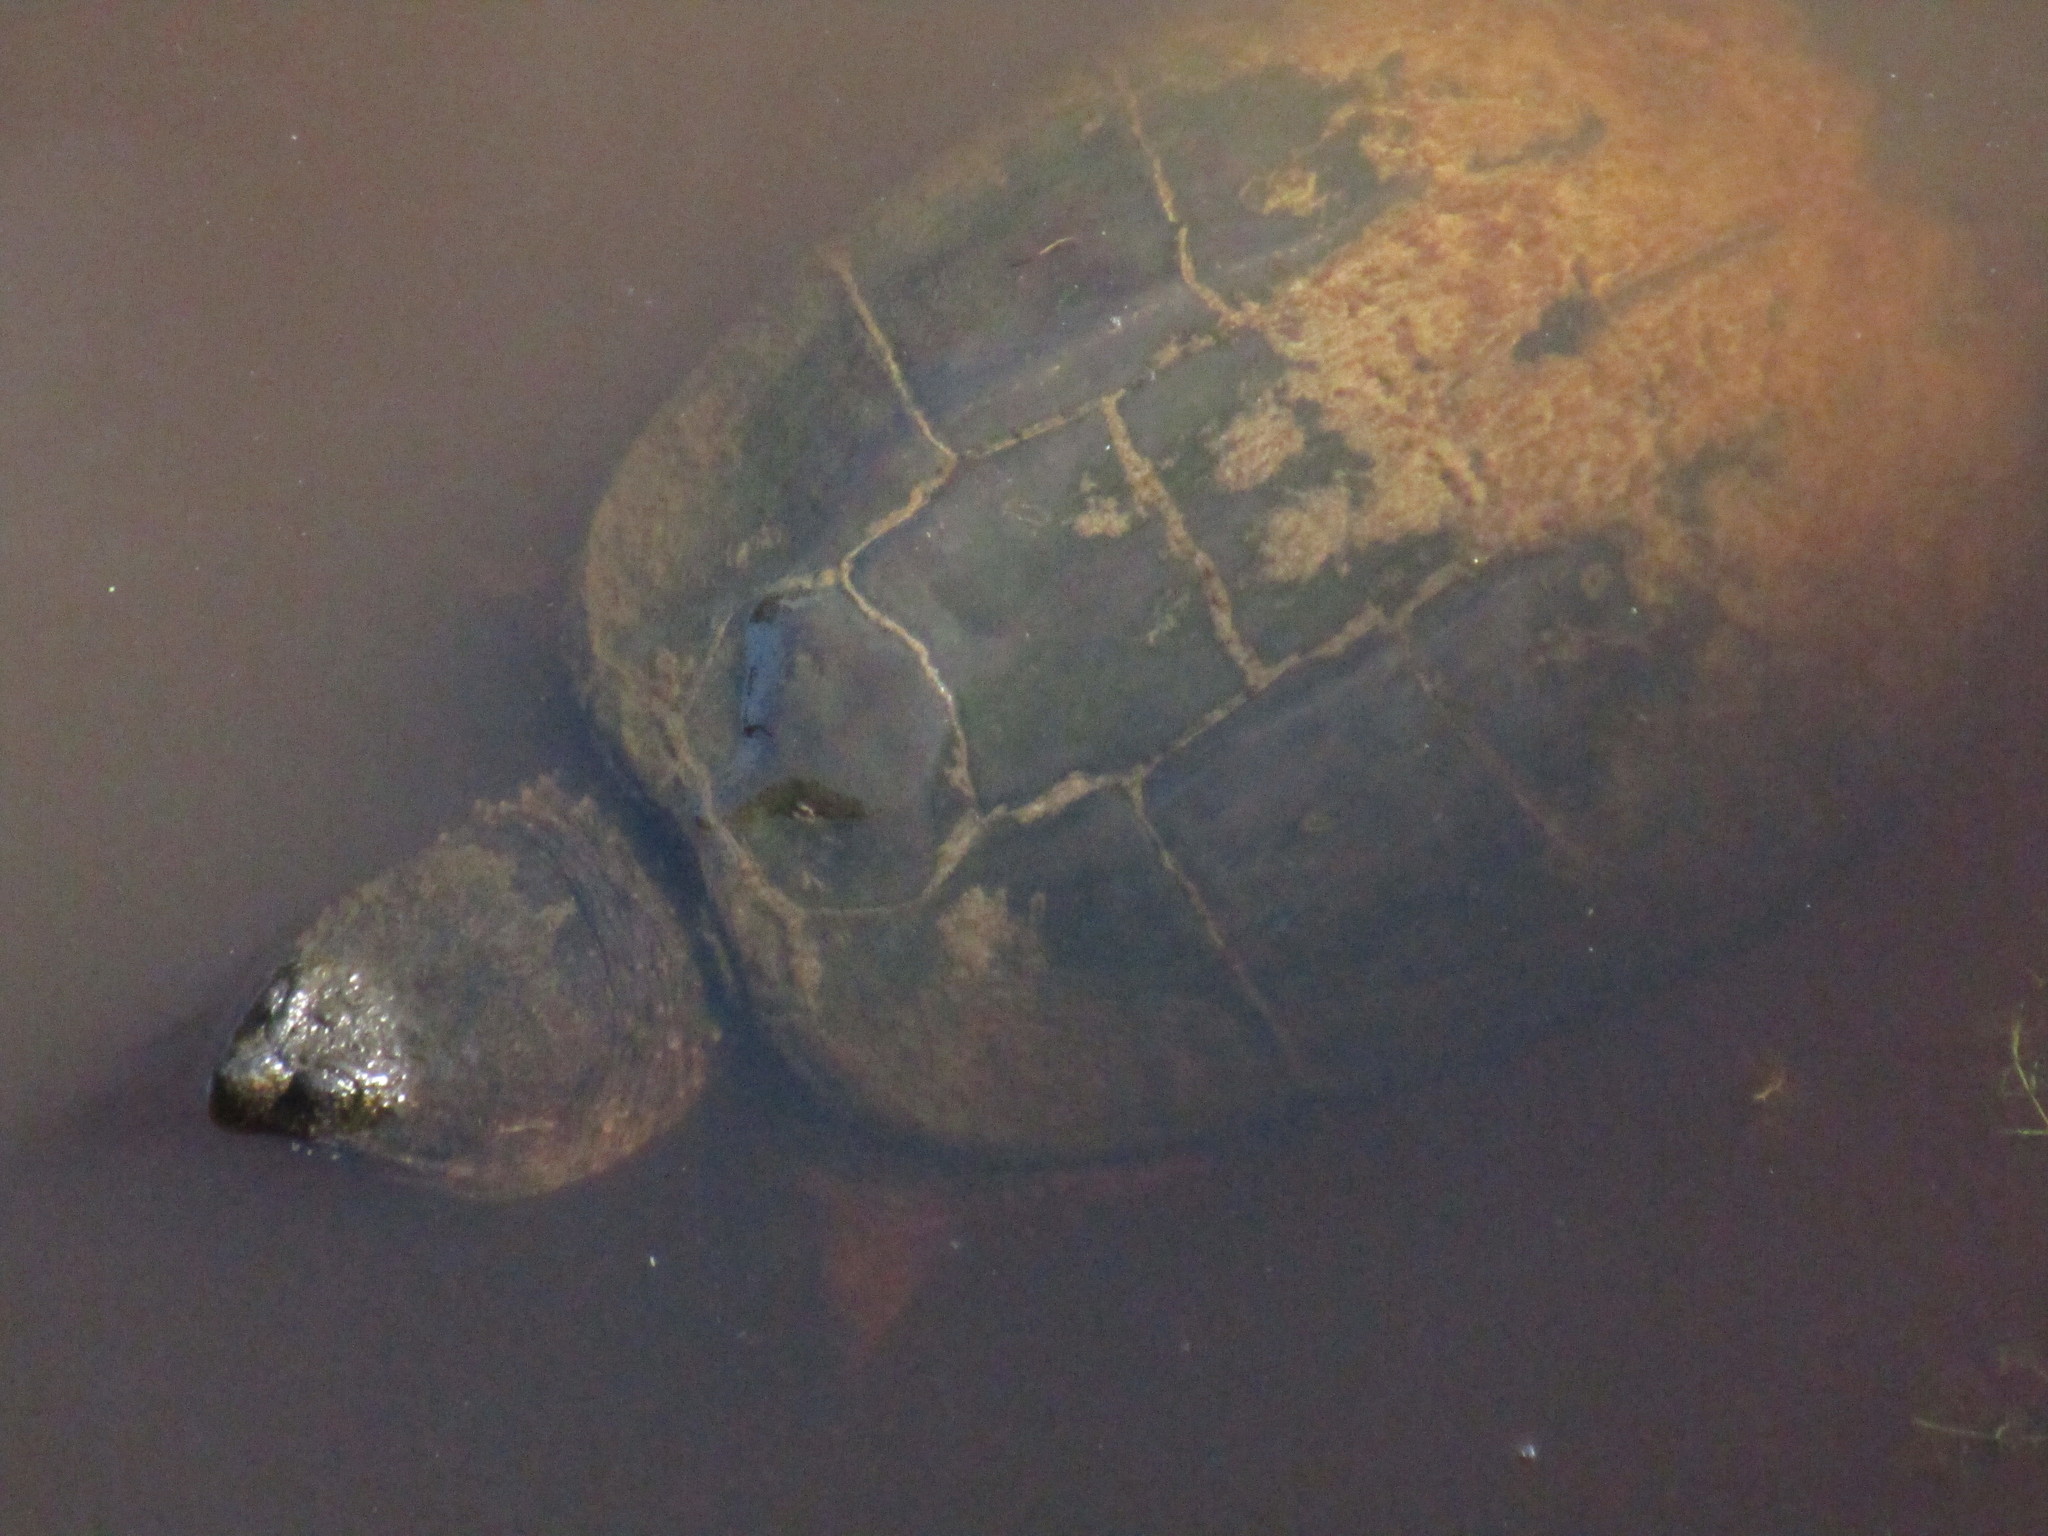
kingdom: Animalia
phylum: Chordata
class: Testudines
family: Chelydridae
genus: Chelydra
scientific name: Chelydra serpentina
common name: Common snapping turtle
